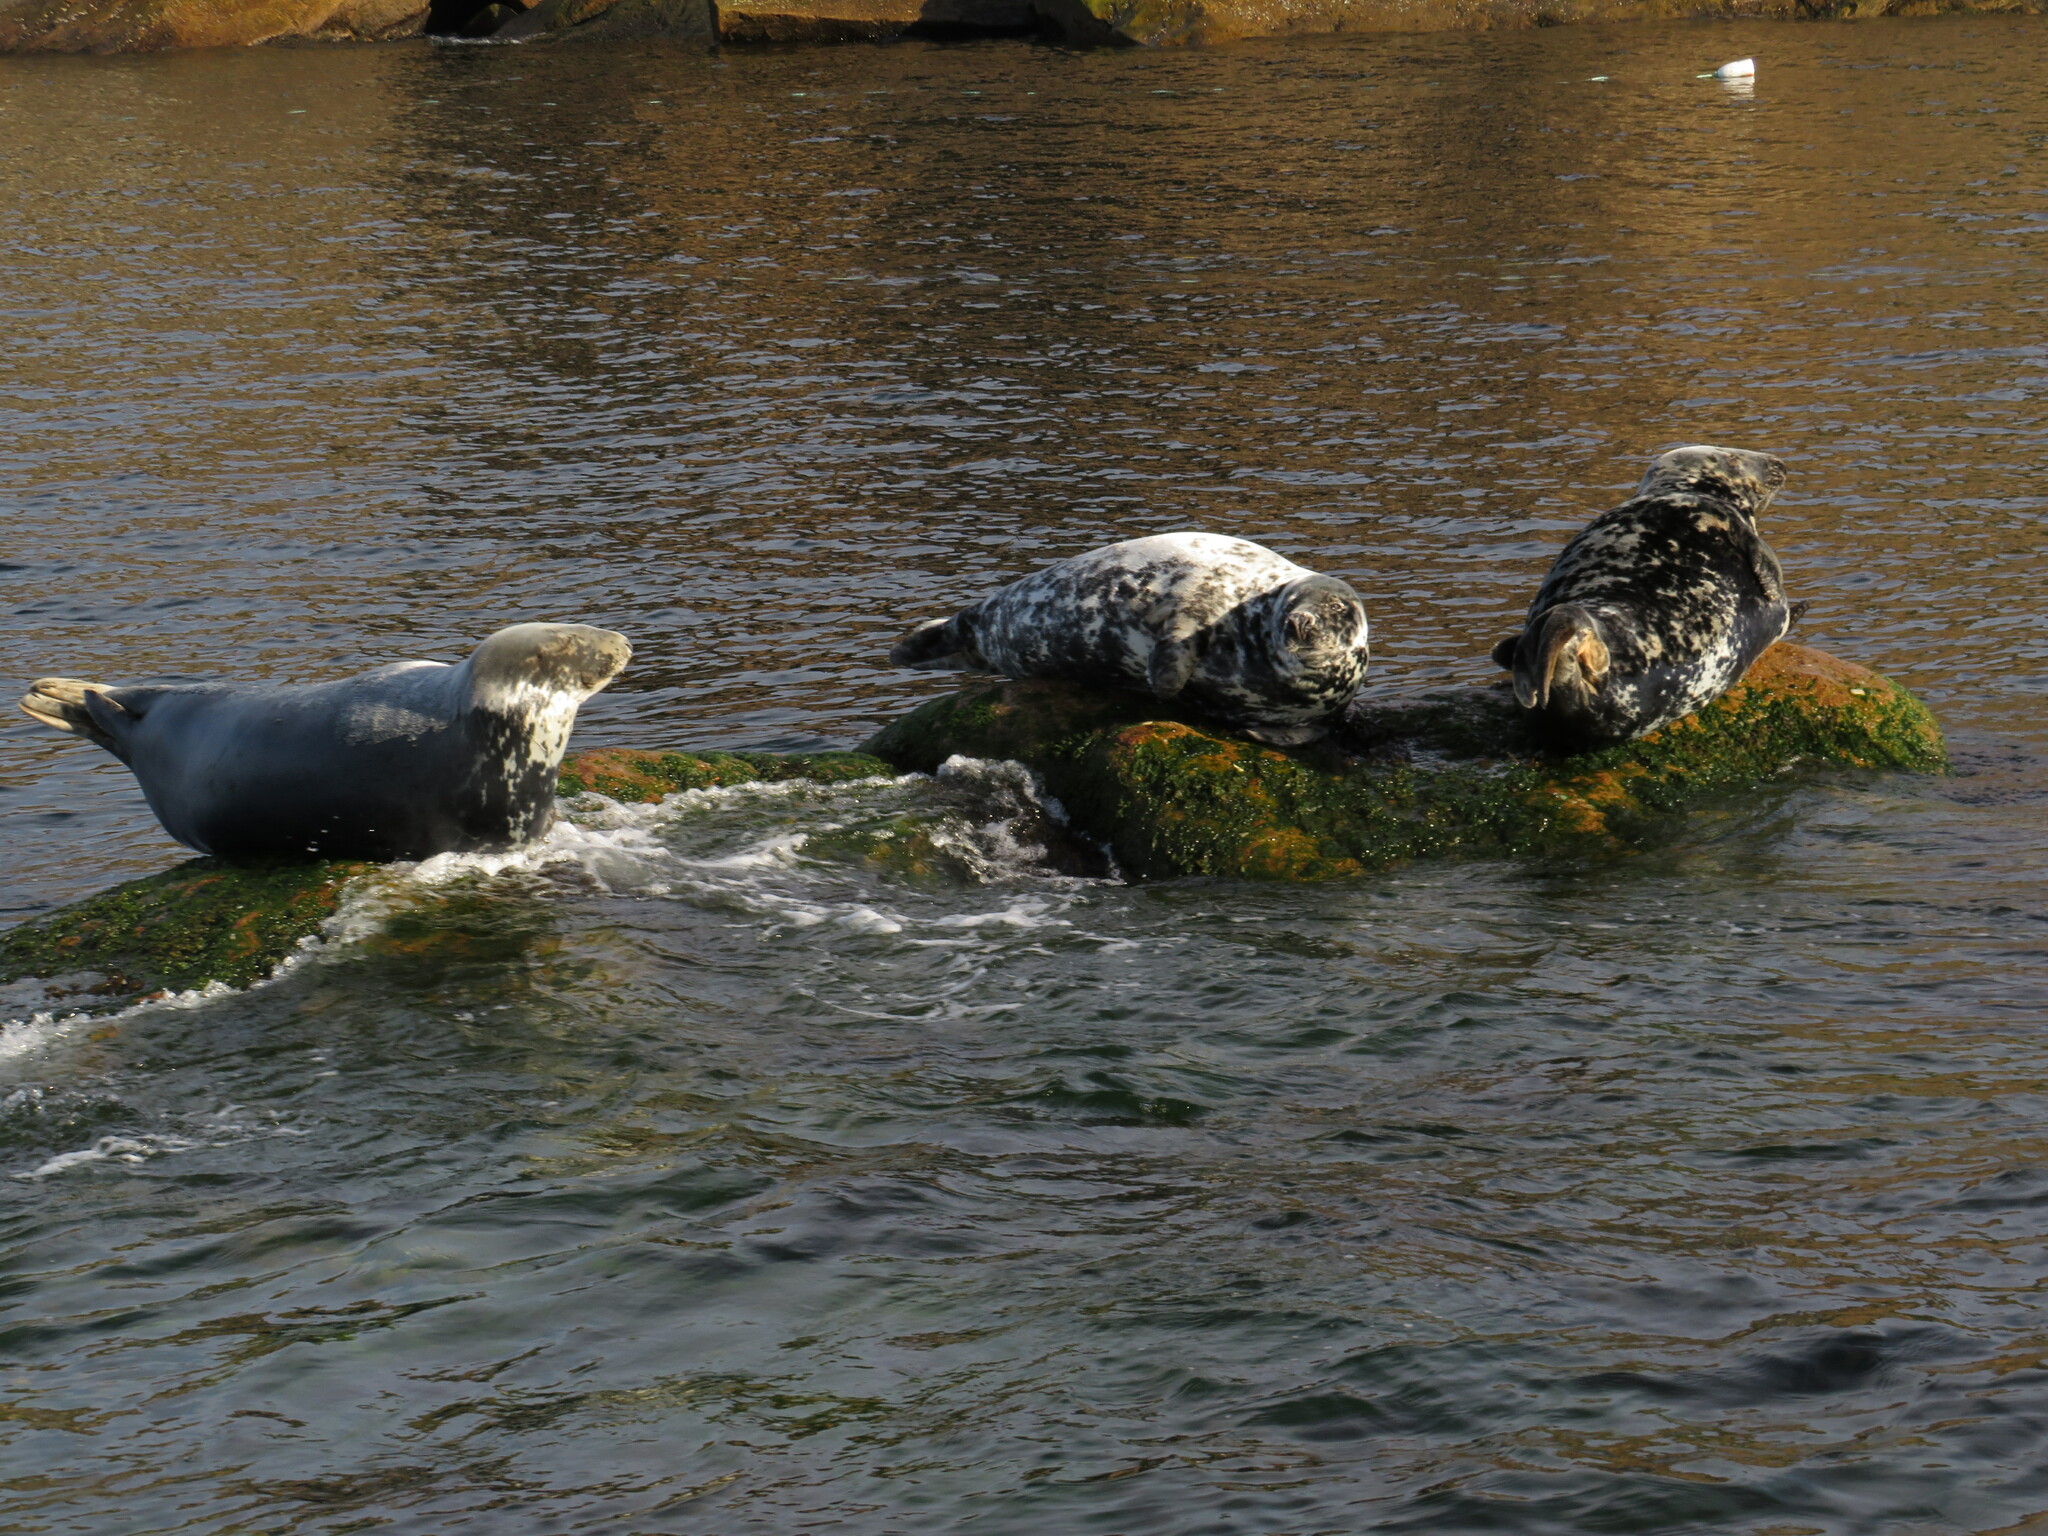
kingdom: Animalia
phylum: Chordata
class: Mammalia
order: Carnivora
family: Phocidae
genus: Halichoerus
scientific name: Halichoerus grypus
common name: Grey seal
